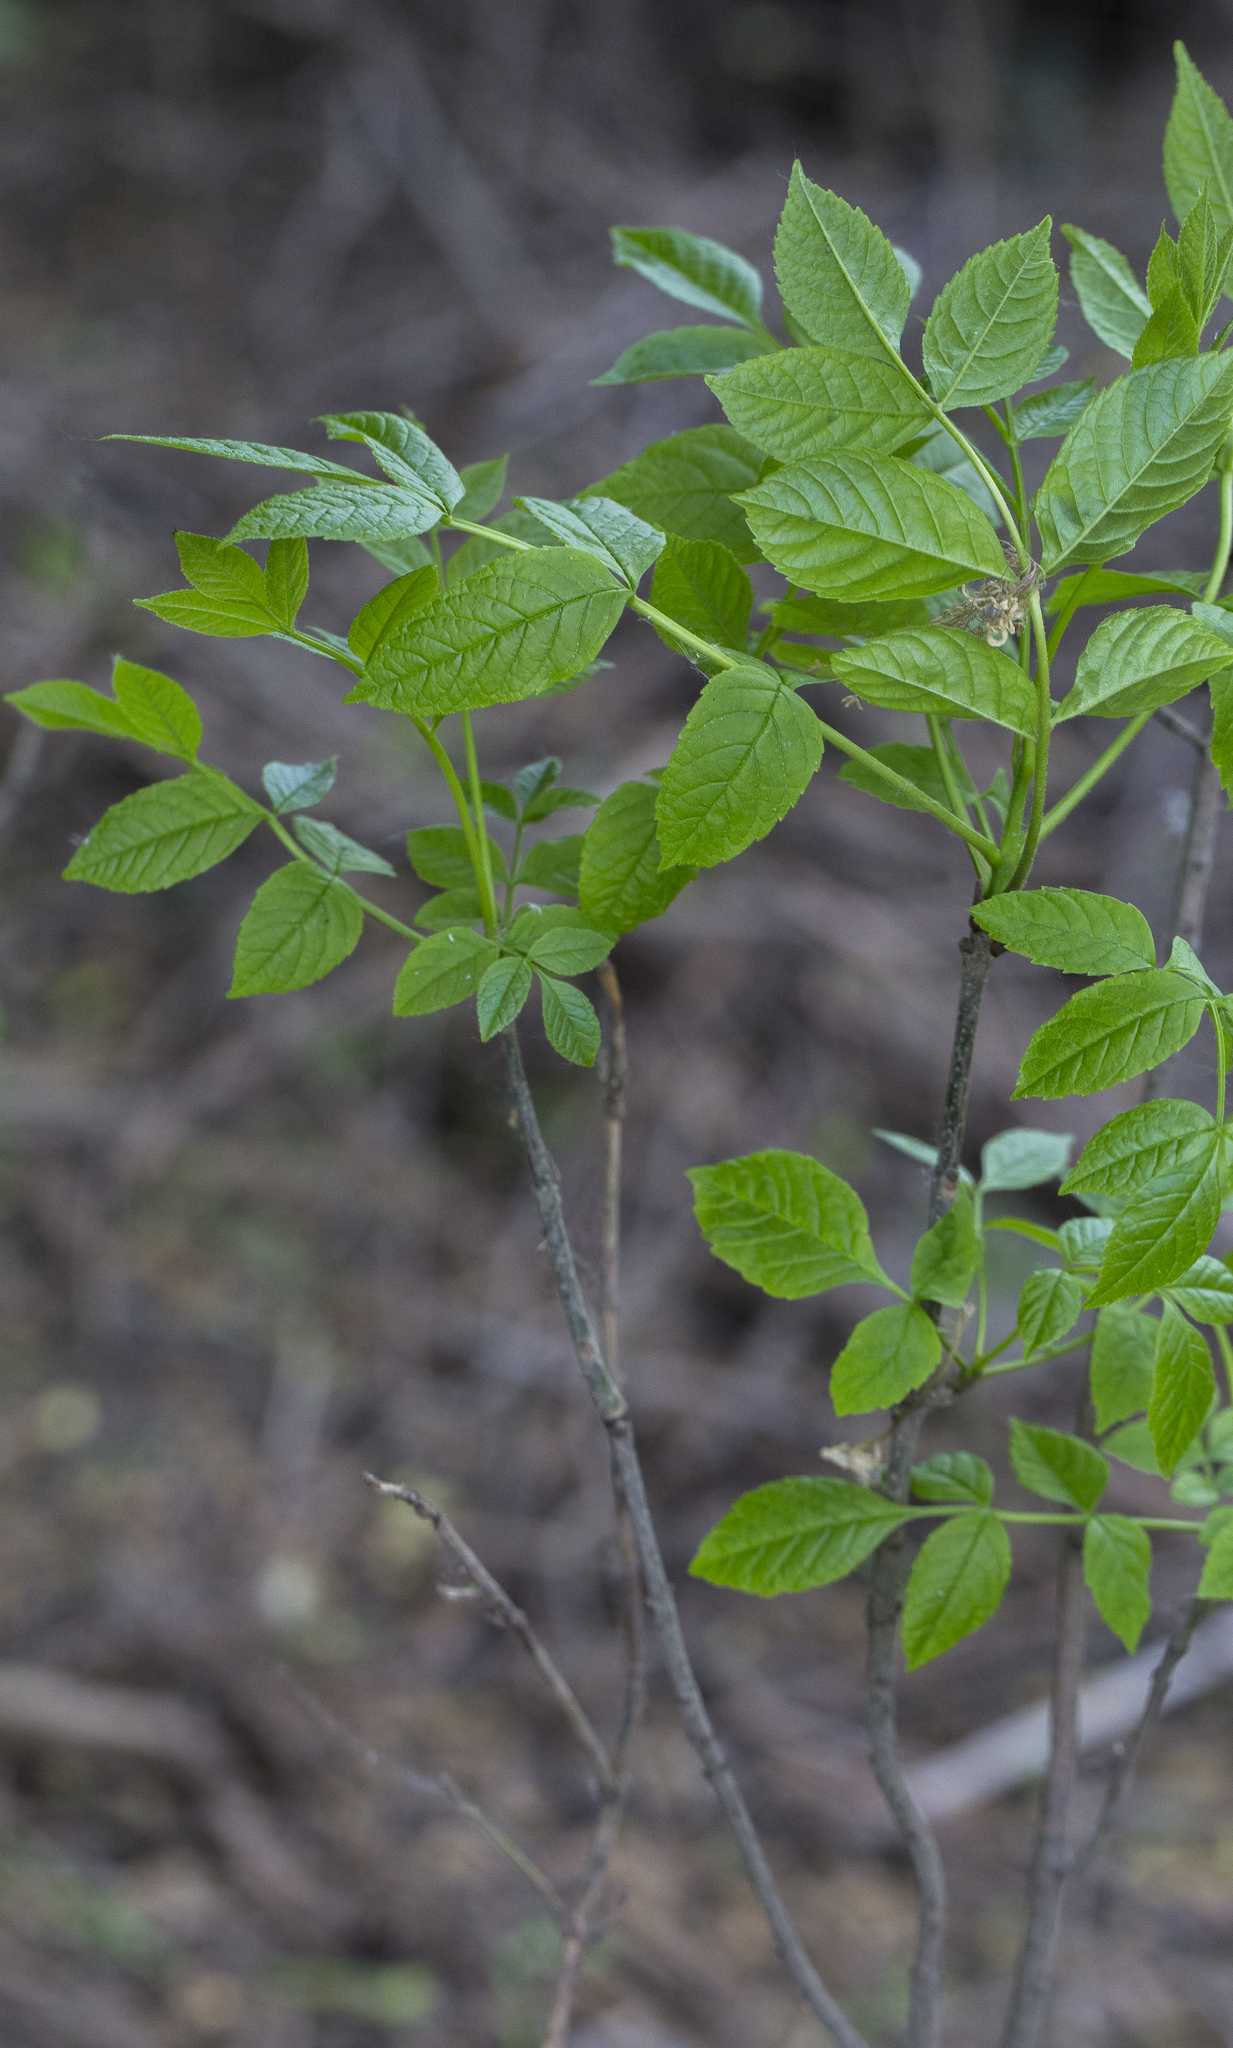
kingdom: Plantae
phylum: Tracheophyta
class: Magnoliopsida
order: Lamiales
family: Oleaceae
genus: Fraxinus
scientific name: Fraxinus pennsylvanica
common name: Green ash
